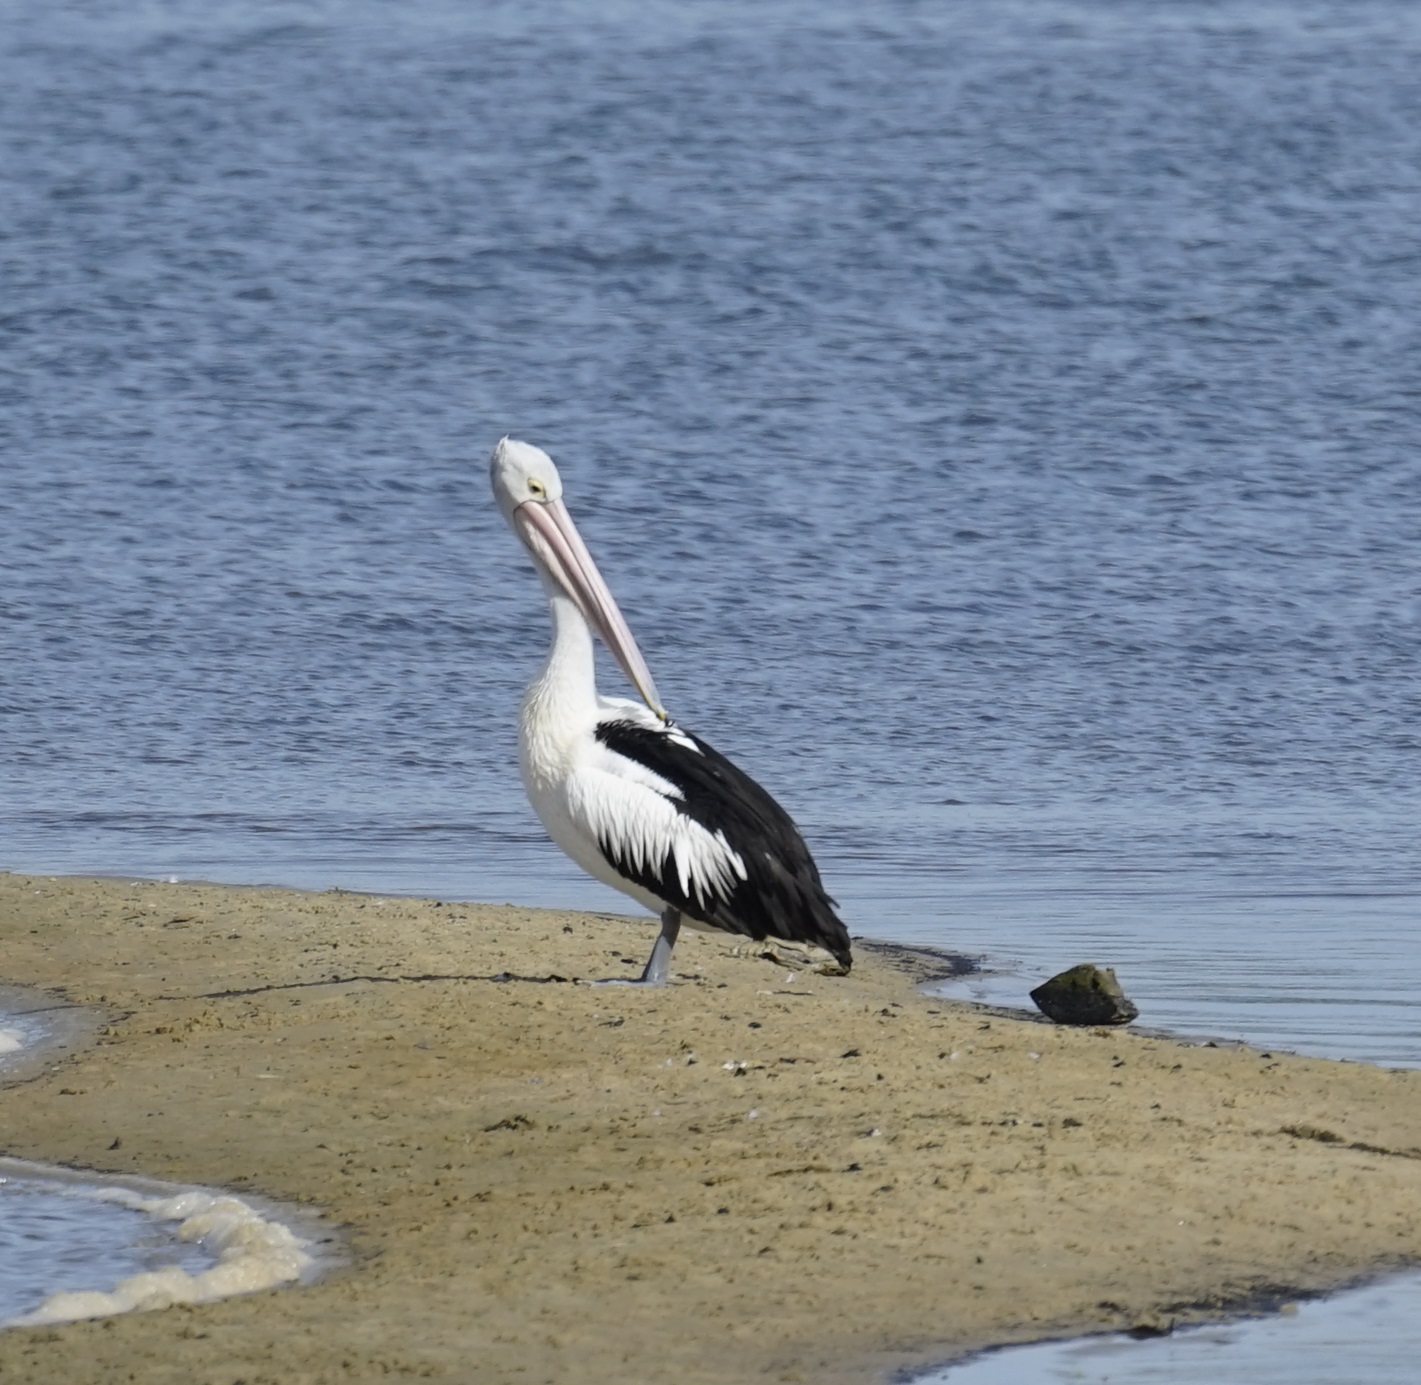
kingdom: Animalia
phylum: Chordata
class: Aves
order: Pelecaniformes
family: Pelecanidae
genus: Pelecanus
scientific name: Pelecanus conspicillatus
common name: Australian pelican
